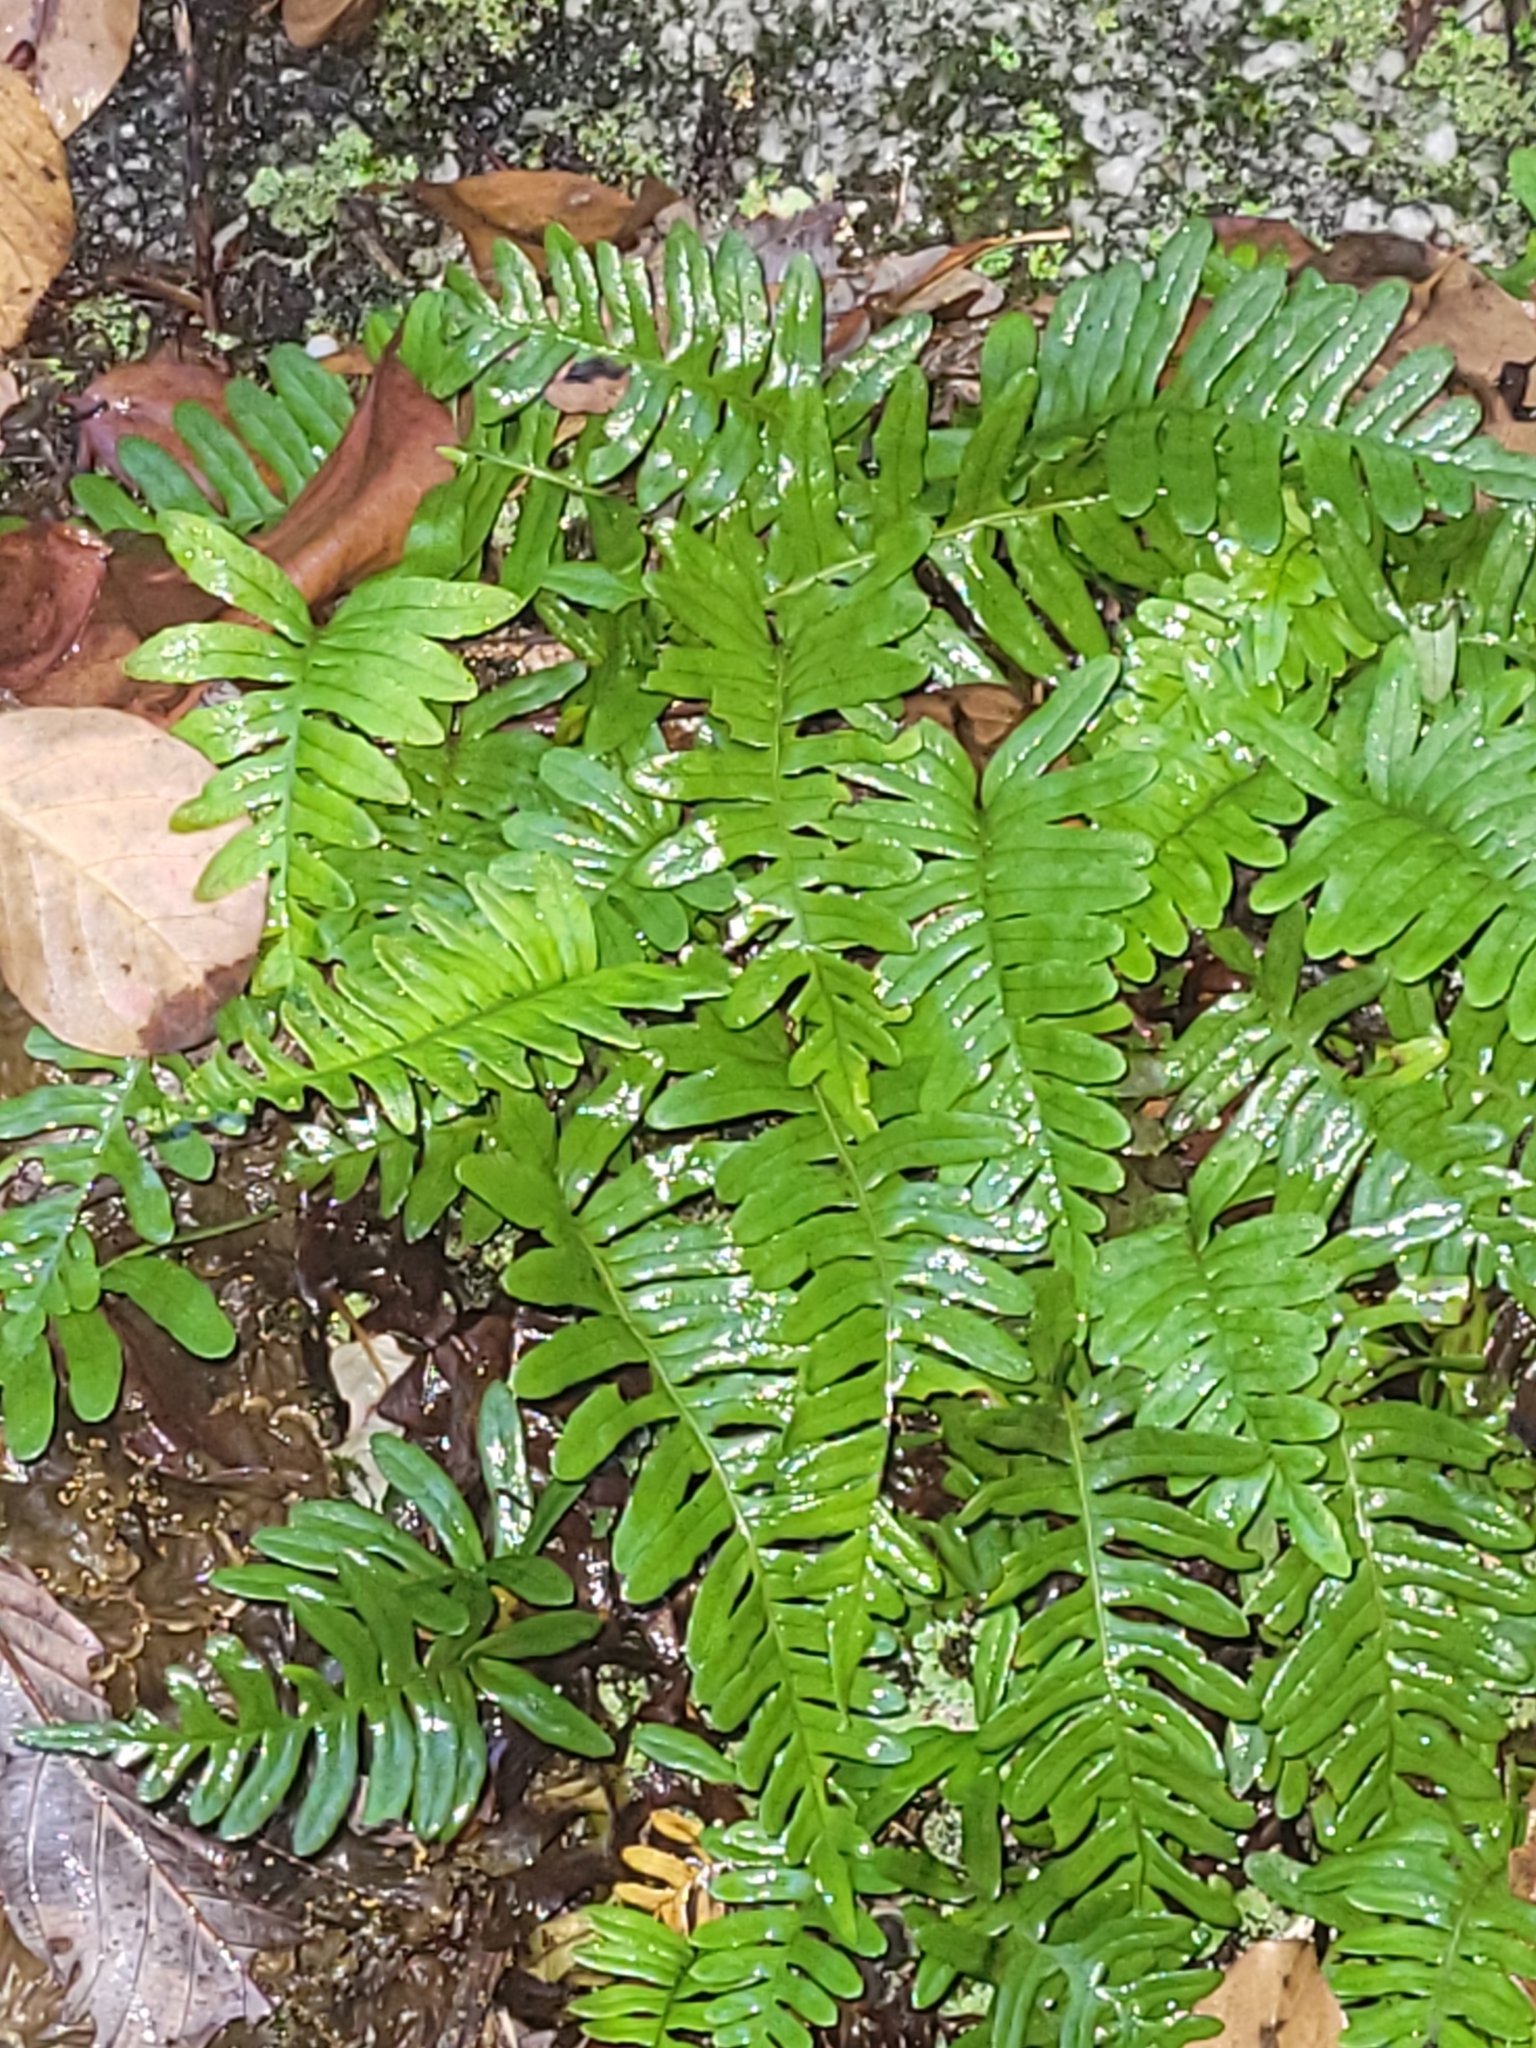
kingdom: Plantae
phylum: Tracheophyta
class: Polypodiopsida
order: Polypodiales
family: Polypodiaceae
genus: Polypodium
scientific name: Polypodium virginianum
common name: American wall fern
